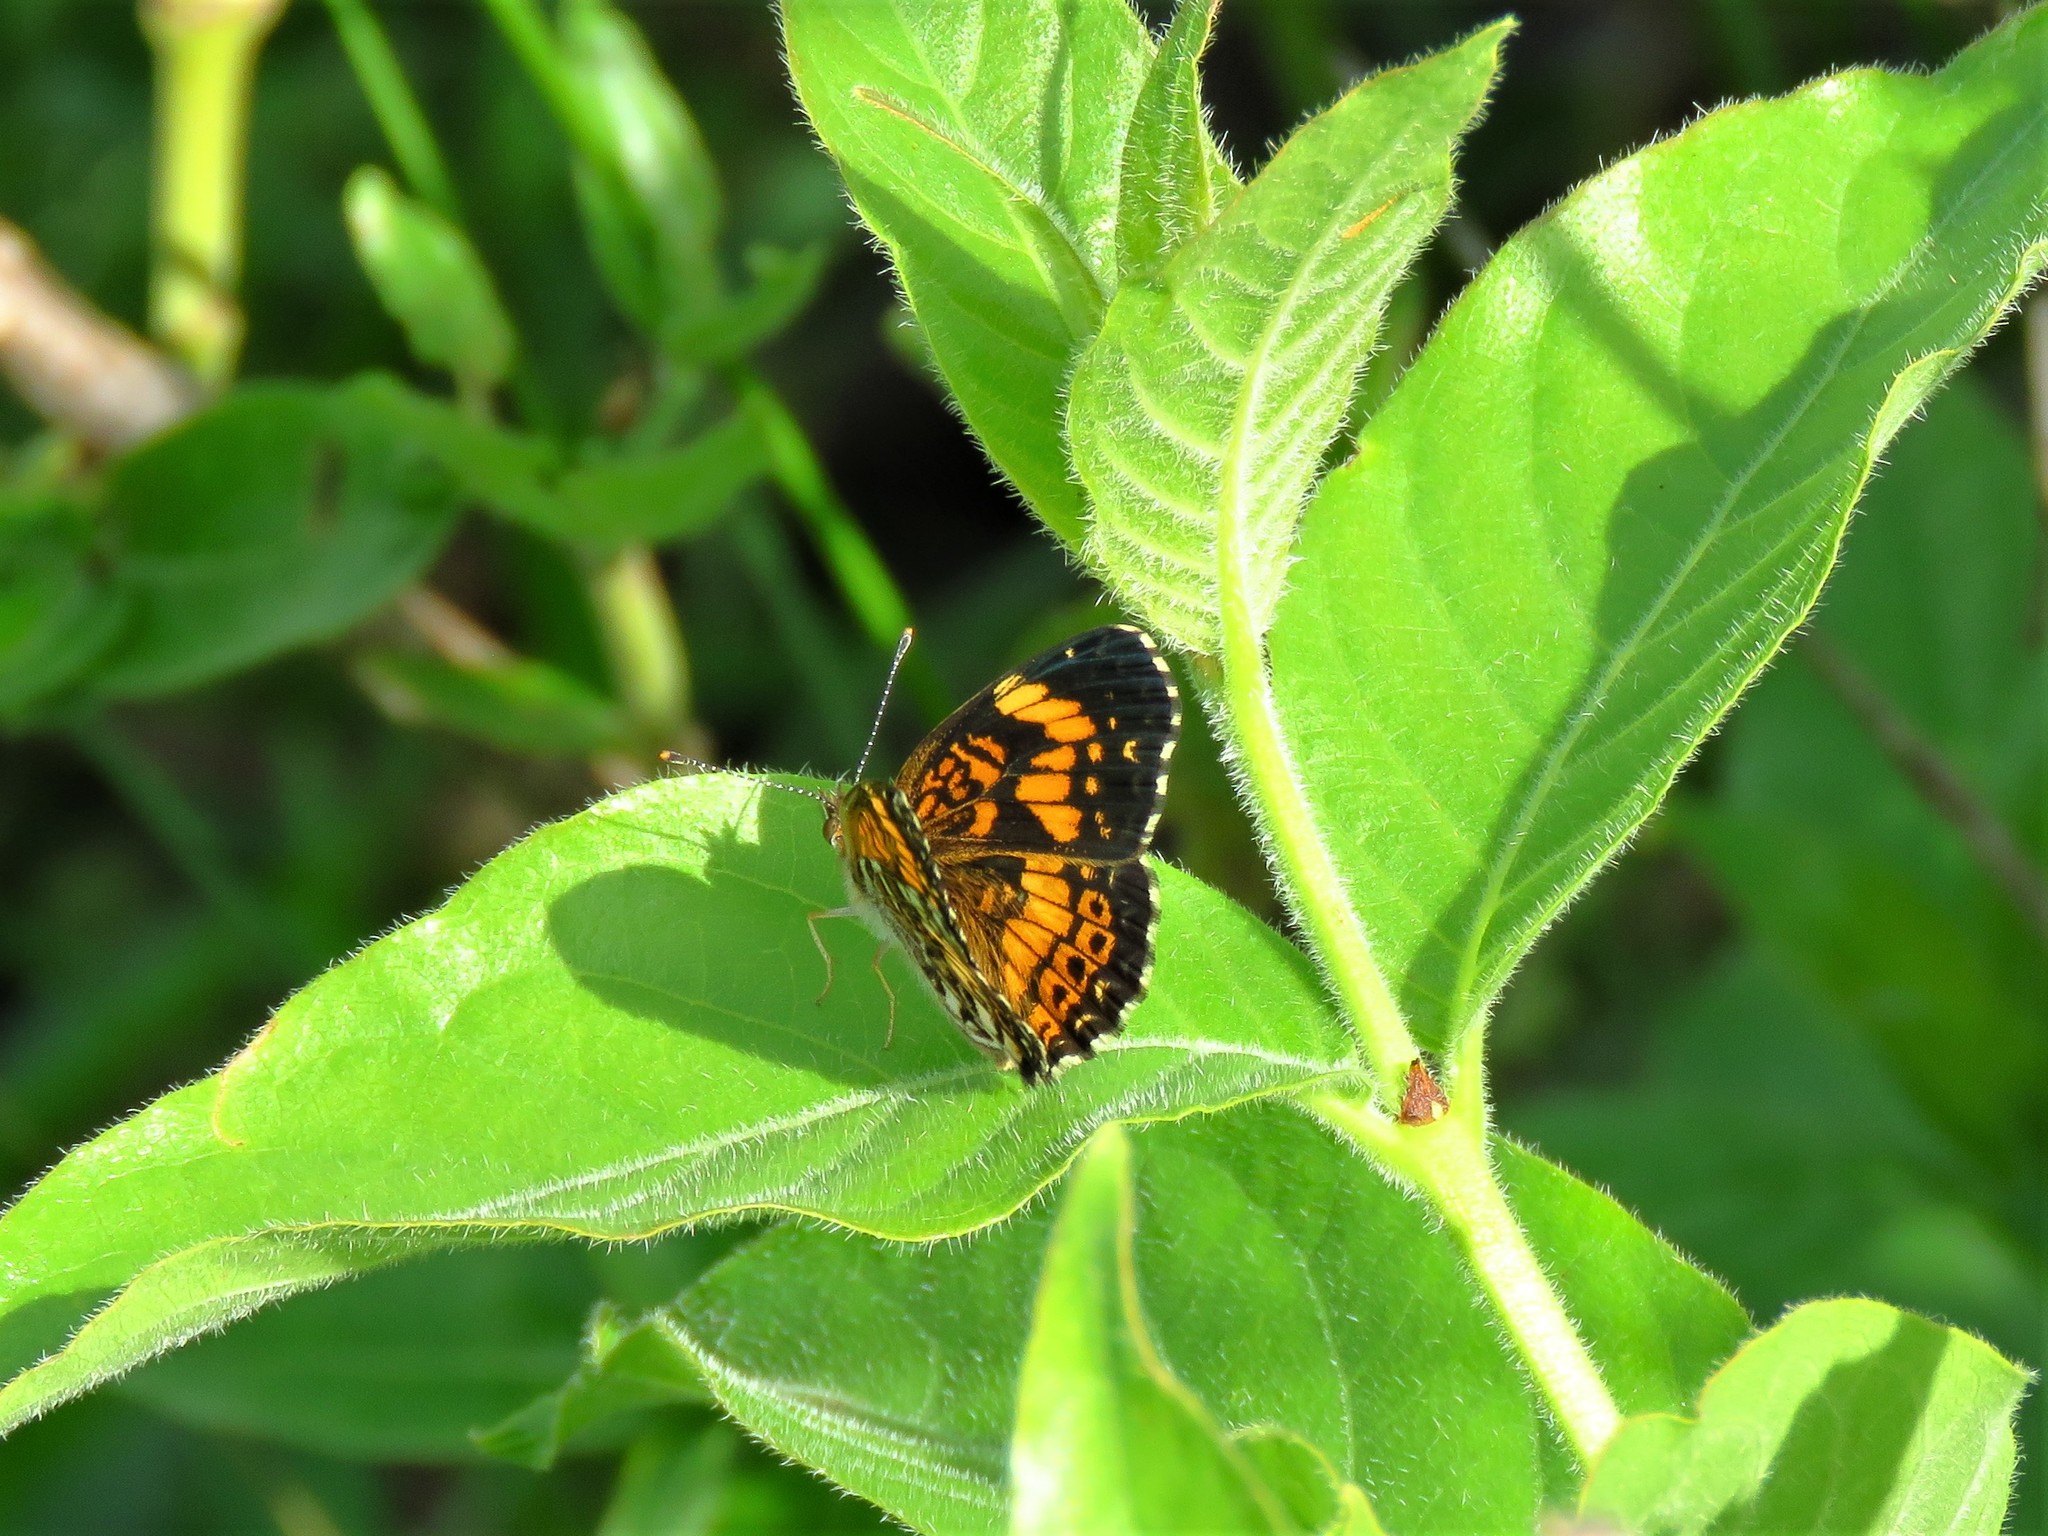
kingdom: Animalia
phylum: Arthropoda
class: Insecta
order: Lepidoptera
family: Nymphalidae
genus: Phyciodes
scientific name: Phyciodes tharos
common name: Pearl crescent
